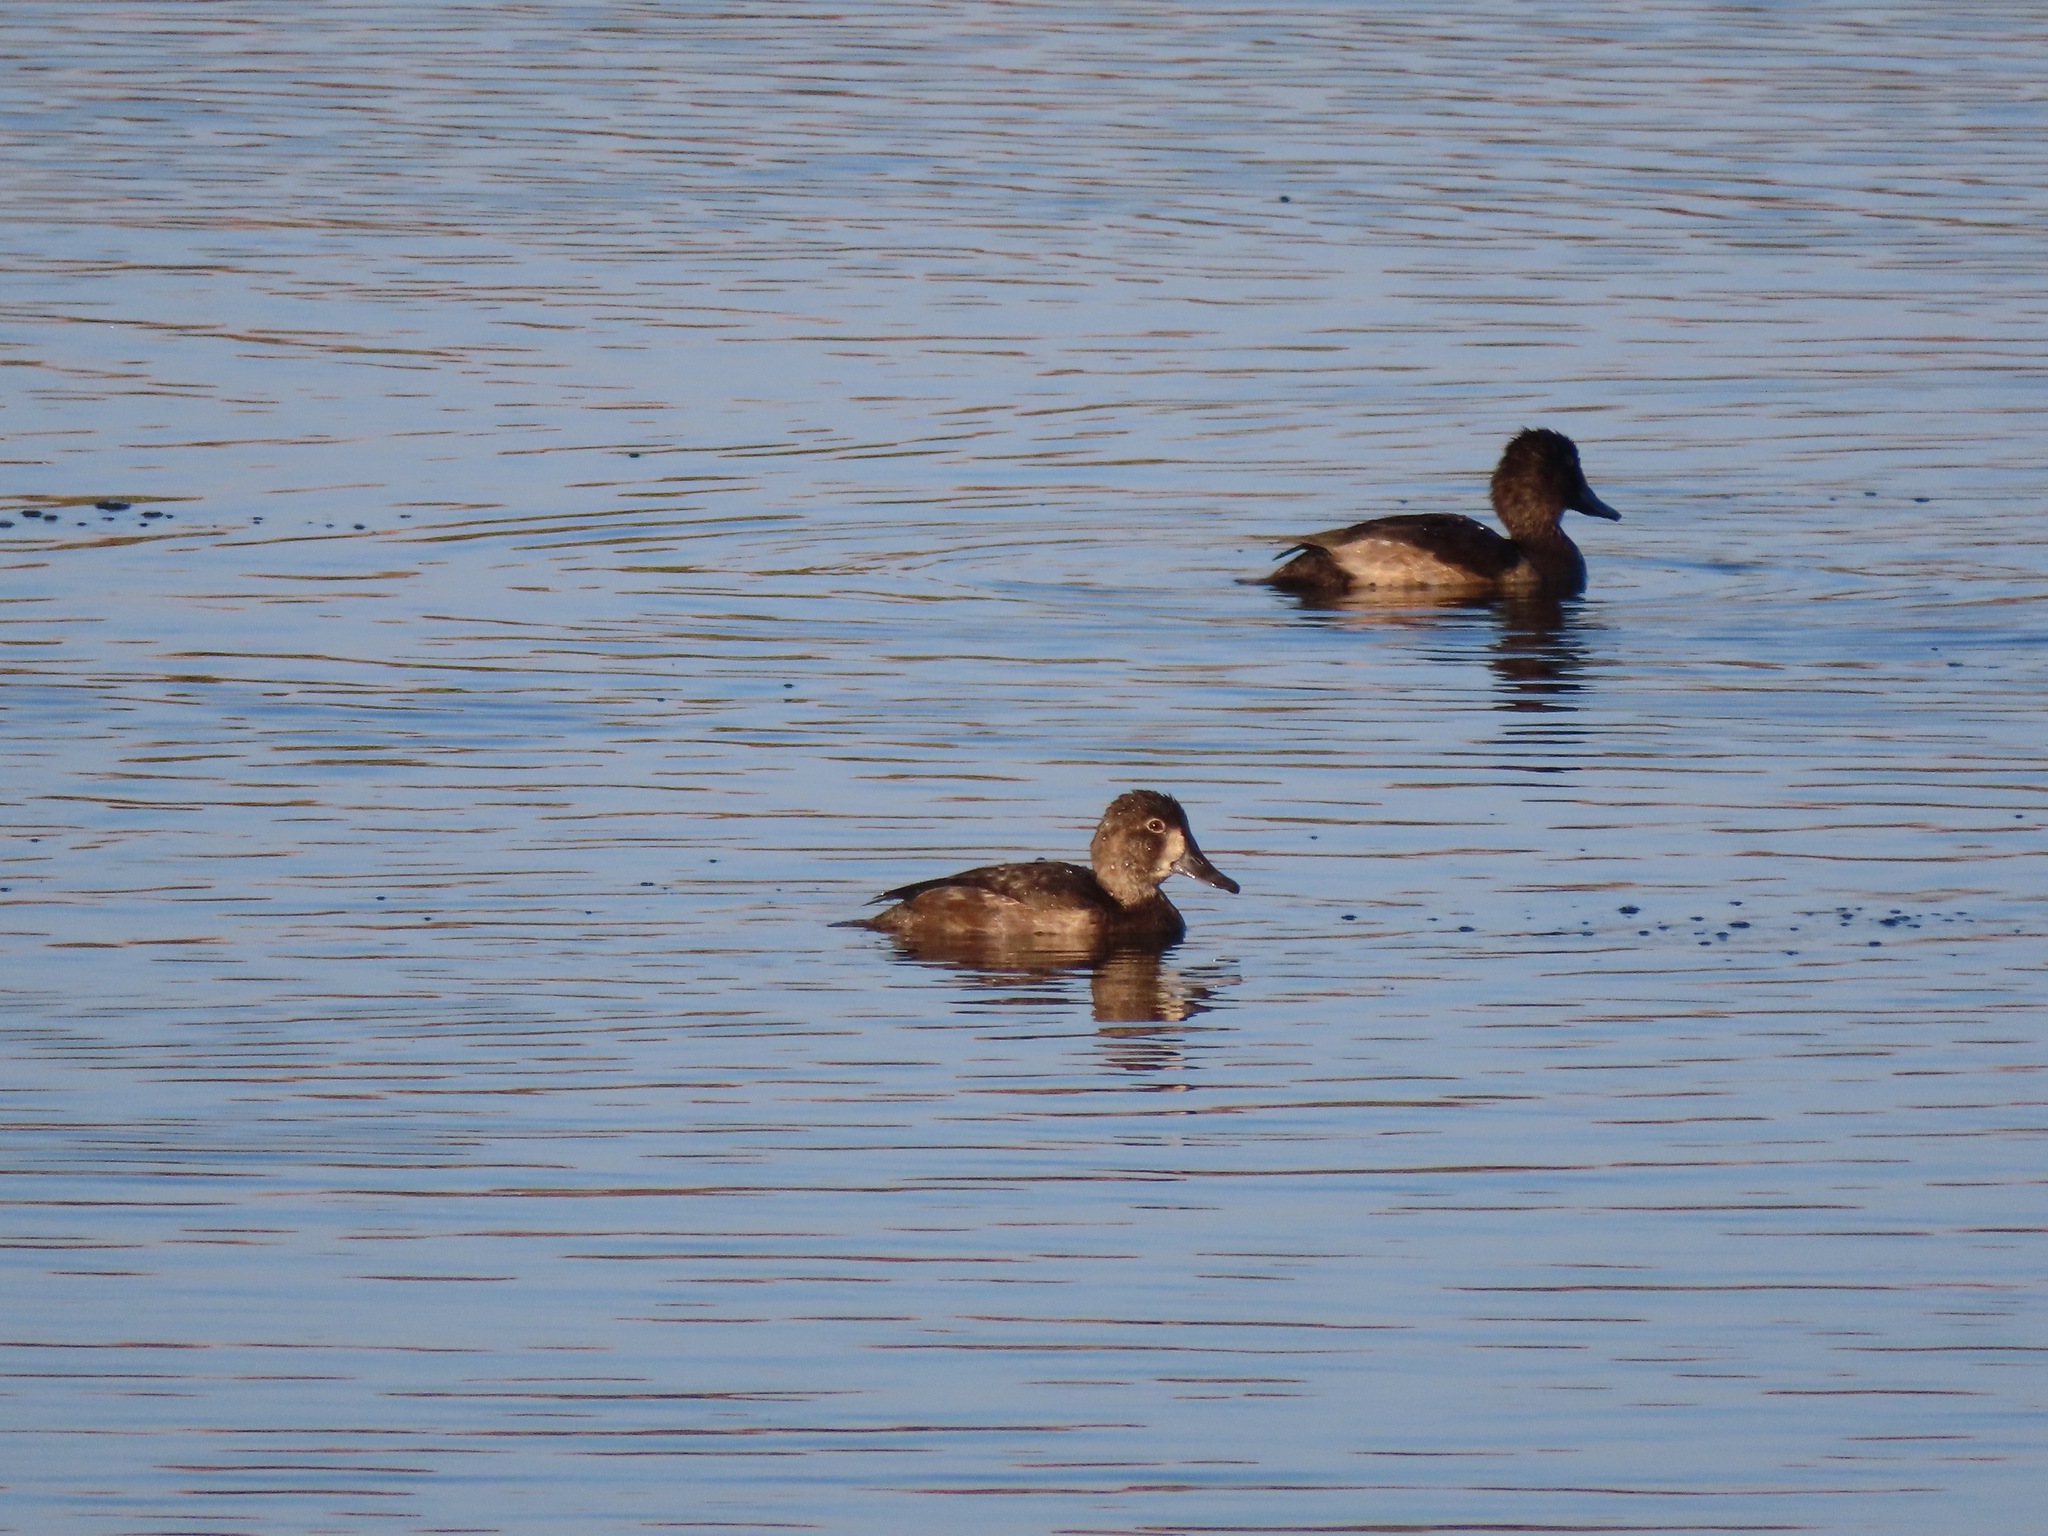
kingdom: Animalia
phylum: Chordata
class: Aves
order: Anseriformes
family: Anatidae
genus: Aythya
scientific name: Aythya collaris
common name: Ring-necked duck
